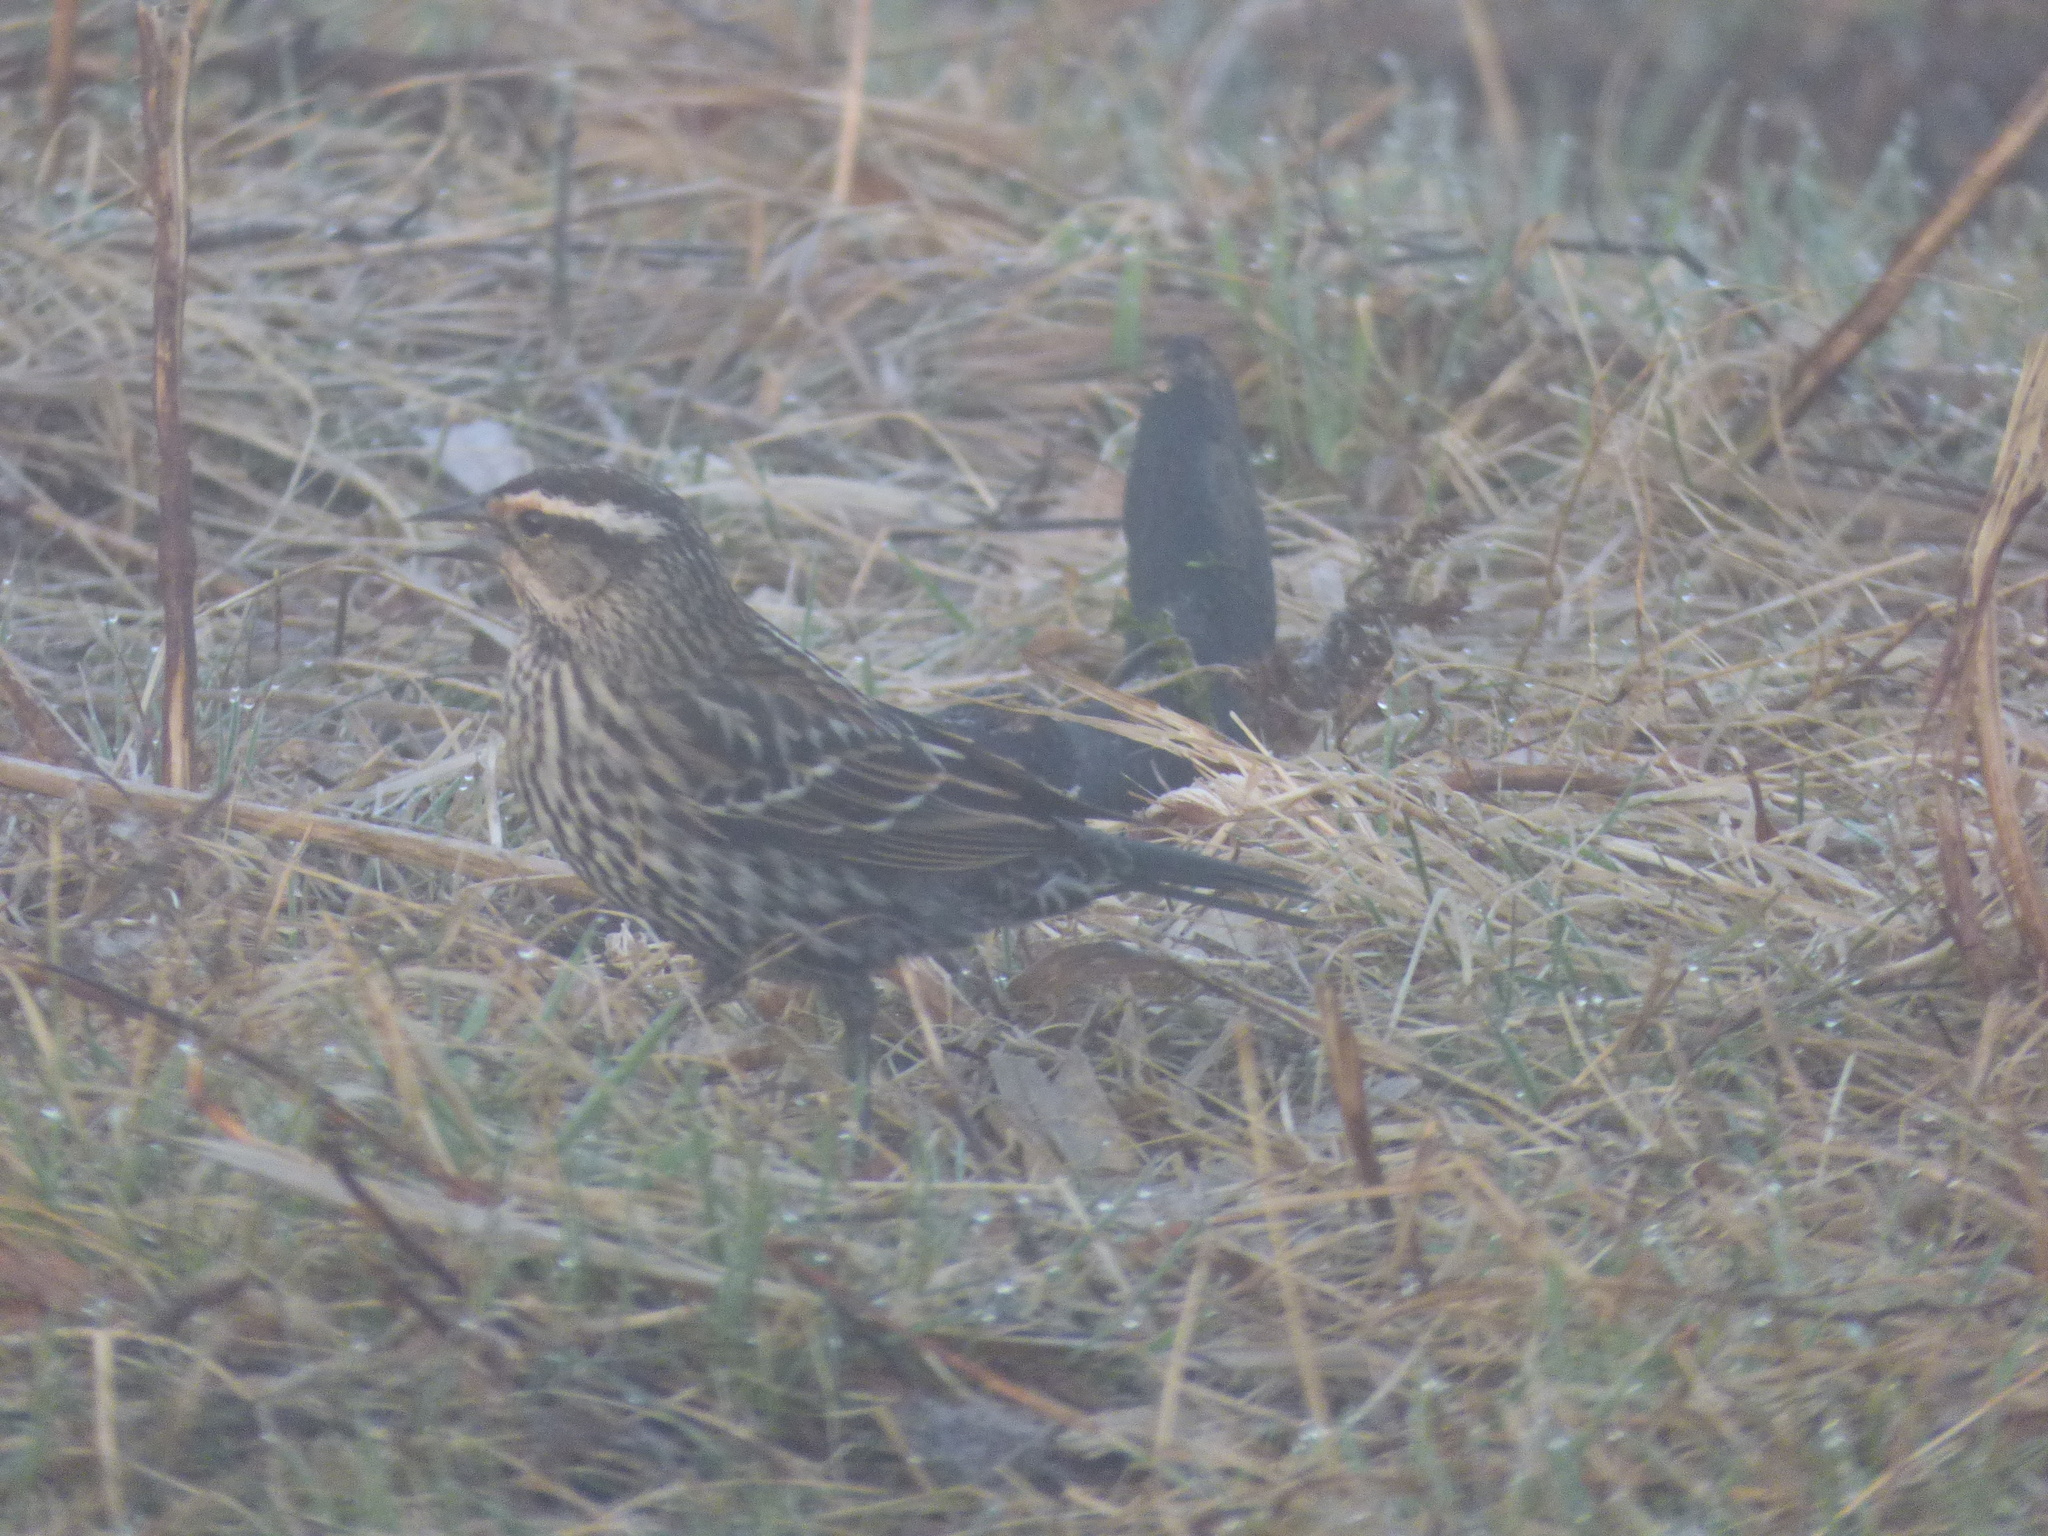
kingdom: Animalia
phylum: Chordata
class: Aves
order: Passeriformes
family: Icteridae
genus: Agelaius
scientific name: Agelaius phoeniceus
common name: Red-winged blackbird
